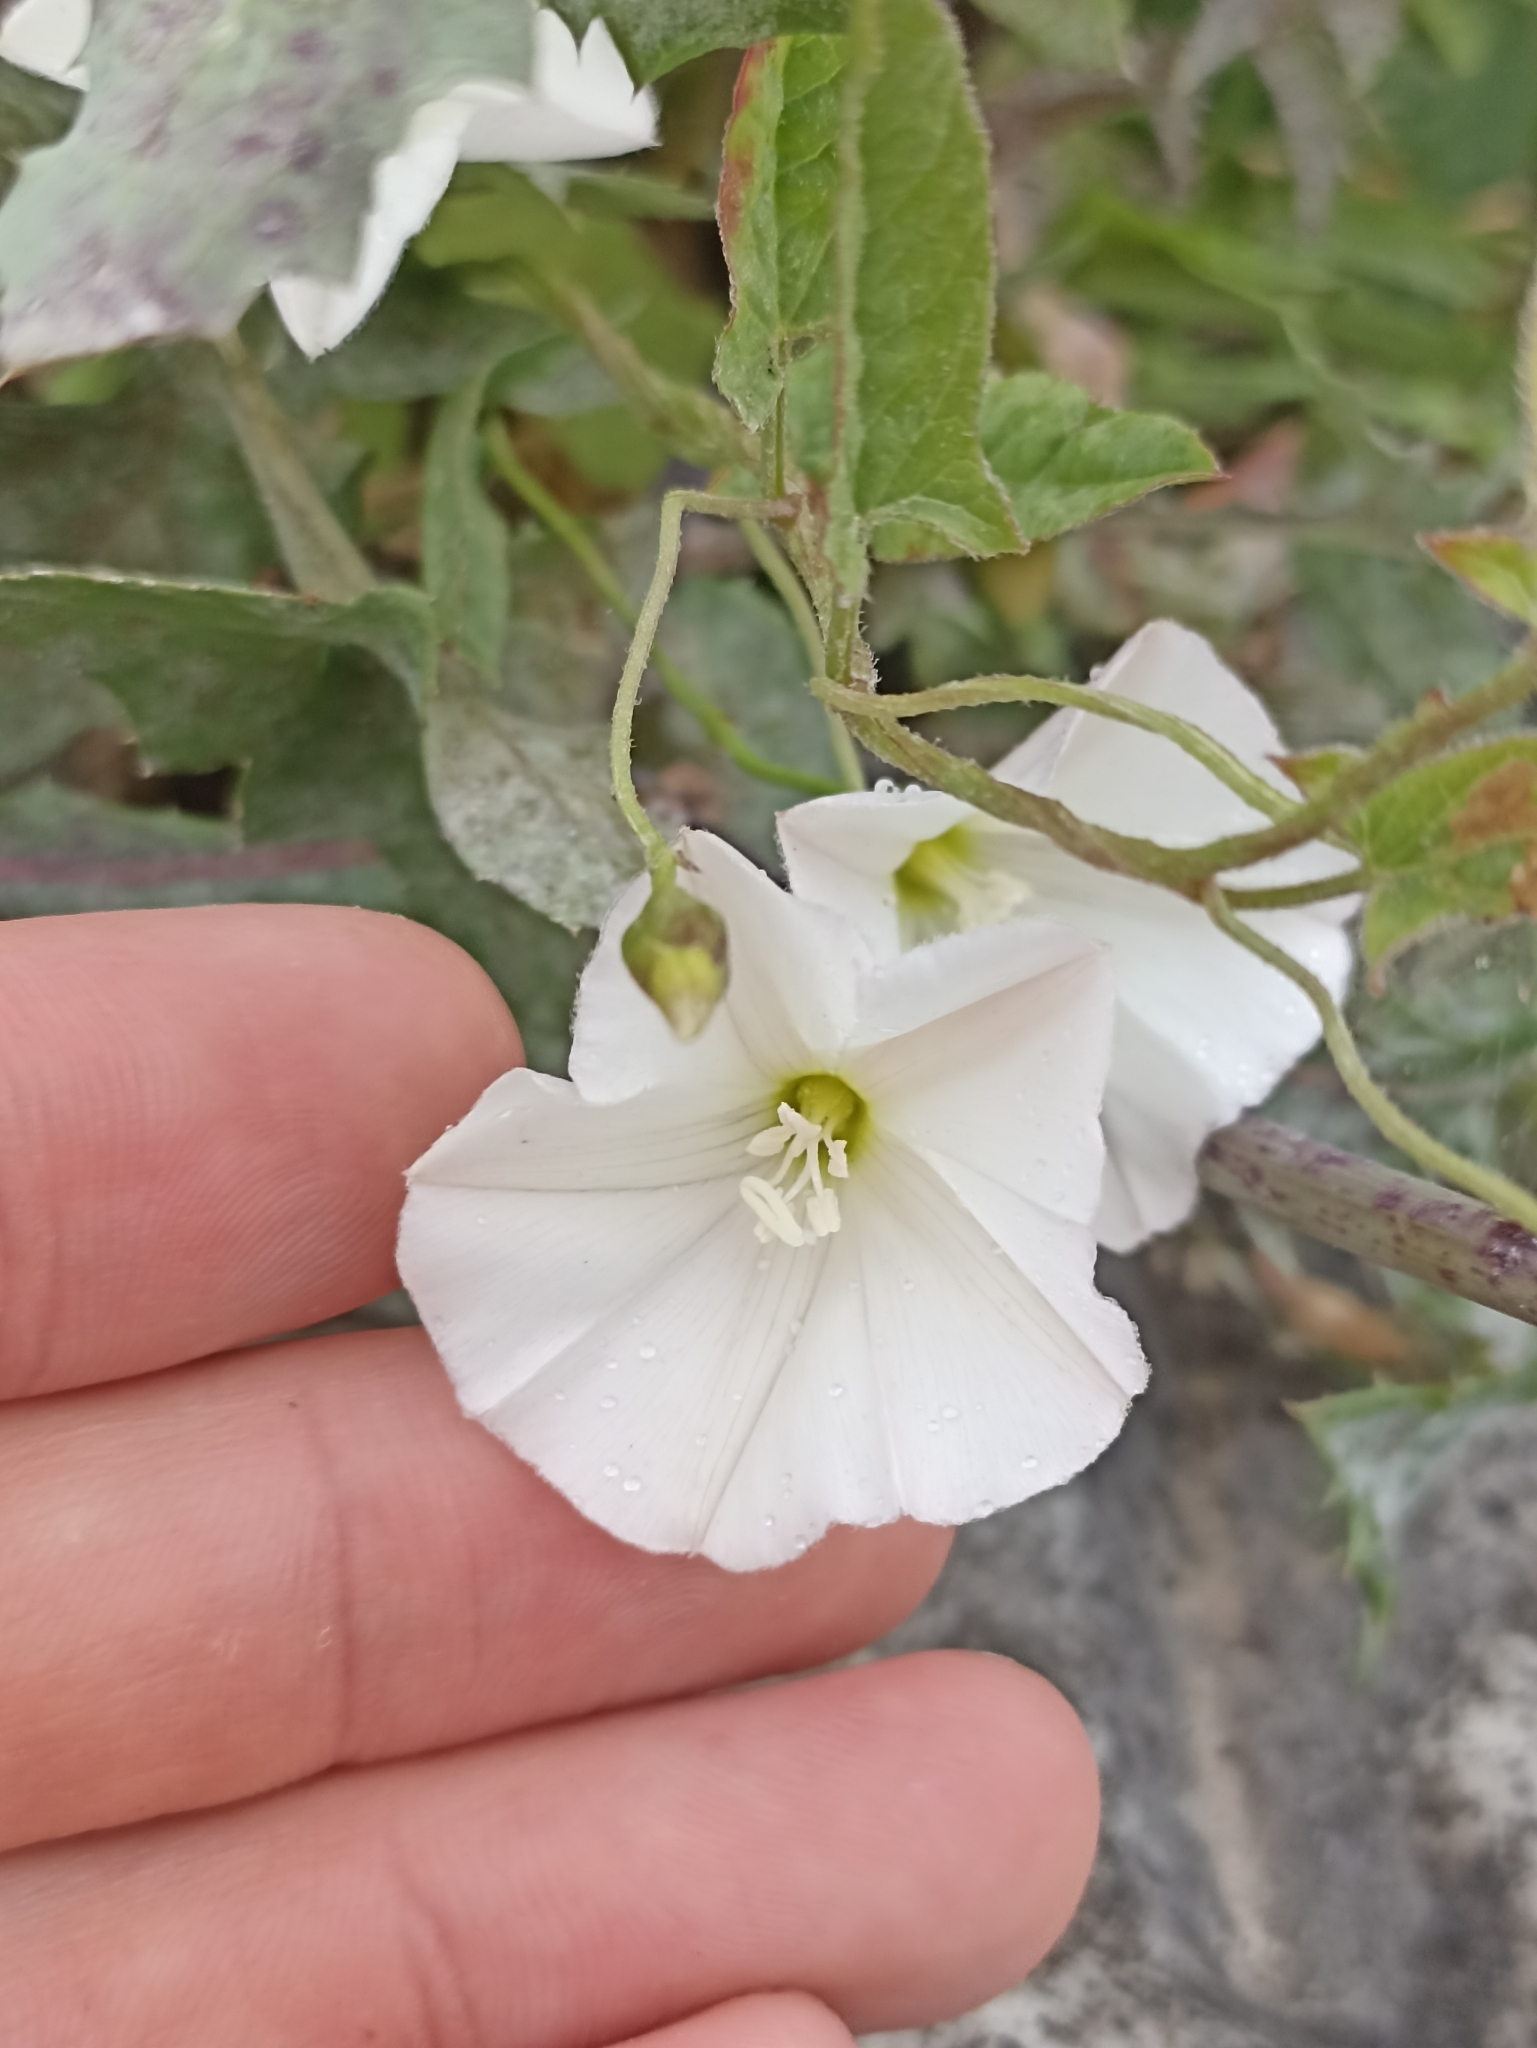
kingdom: Plantae
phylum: Tracheophyta
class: Magnoliopsida
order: Solanales
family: Convolvulaceae
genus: Convolvulus
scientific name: Convolvulus arvensis
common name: Field bindweed
